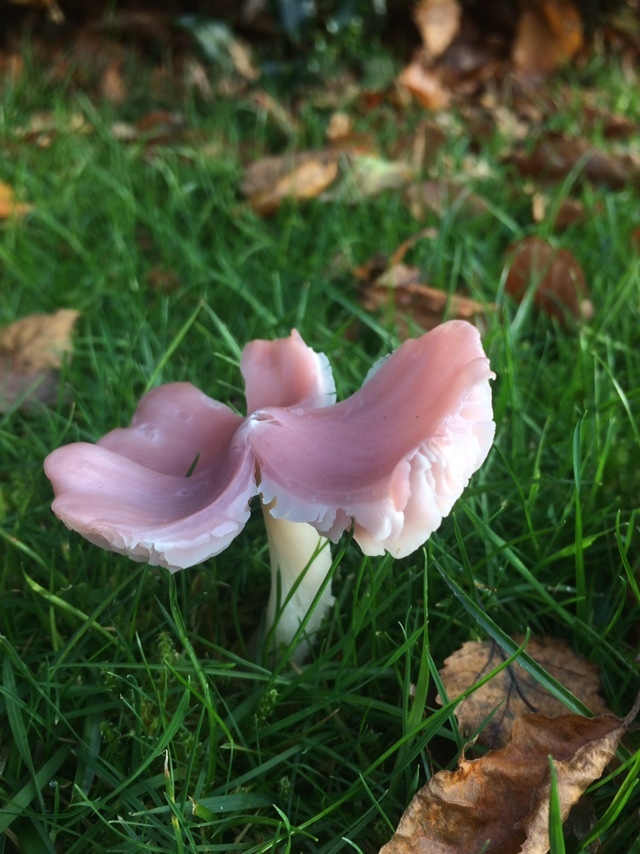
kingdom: Fungi
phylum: Basidiomycota
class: Agaricomycetes
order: Agaricales
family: Hygrophoraceae
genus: Porpolomopsis
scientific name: Porpolomopsis calyptriformis
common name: Pink waxcap
